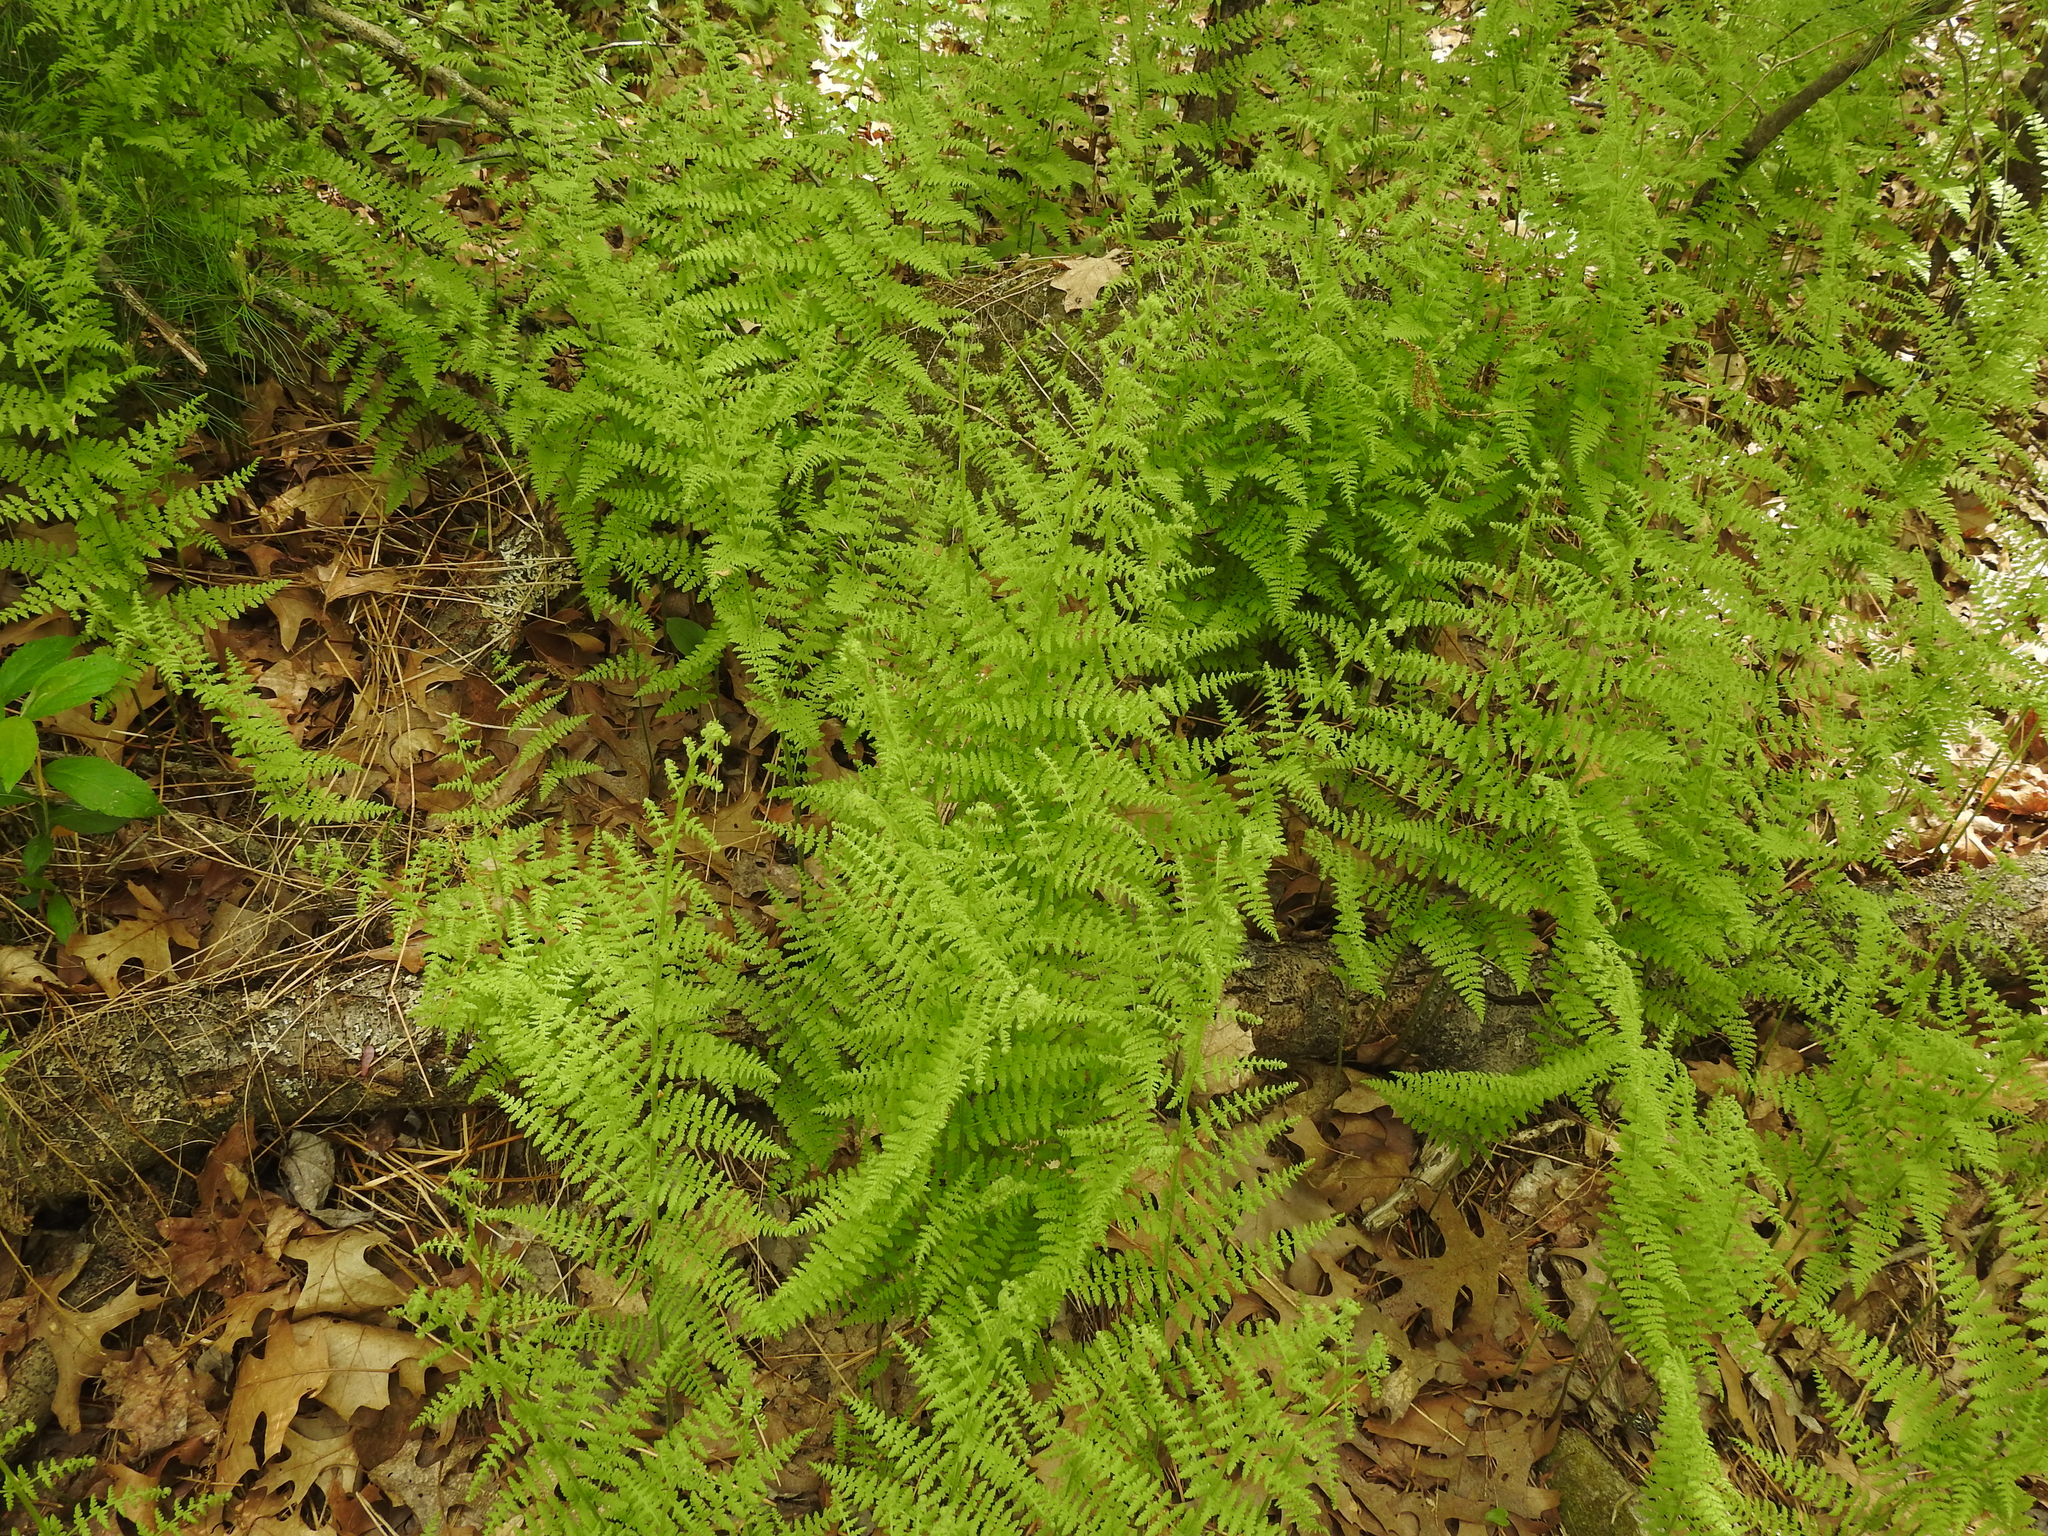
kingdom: Plantae
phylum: Tracheophyta
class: Polypodiopsida
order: Polypodiales
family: Dennstaedtiaceae
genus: Sitobolium
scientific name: Sitobolium punctilobum
